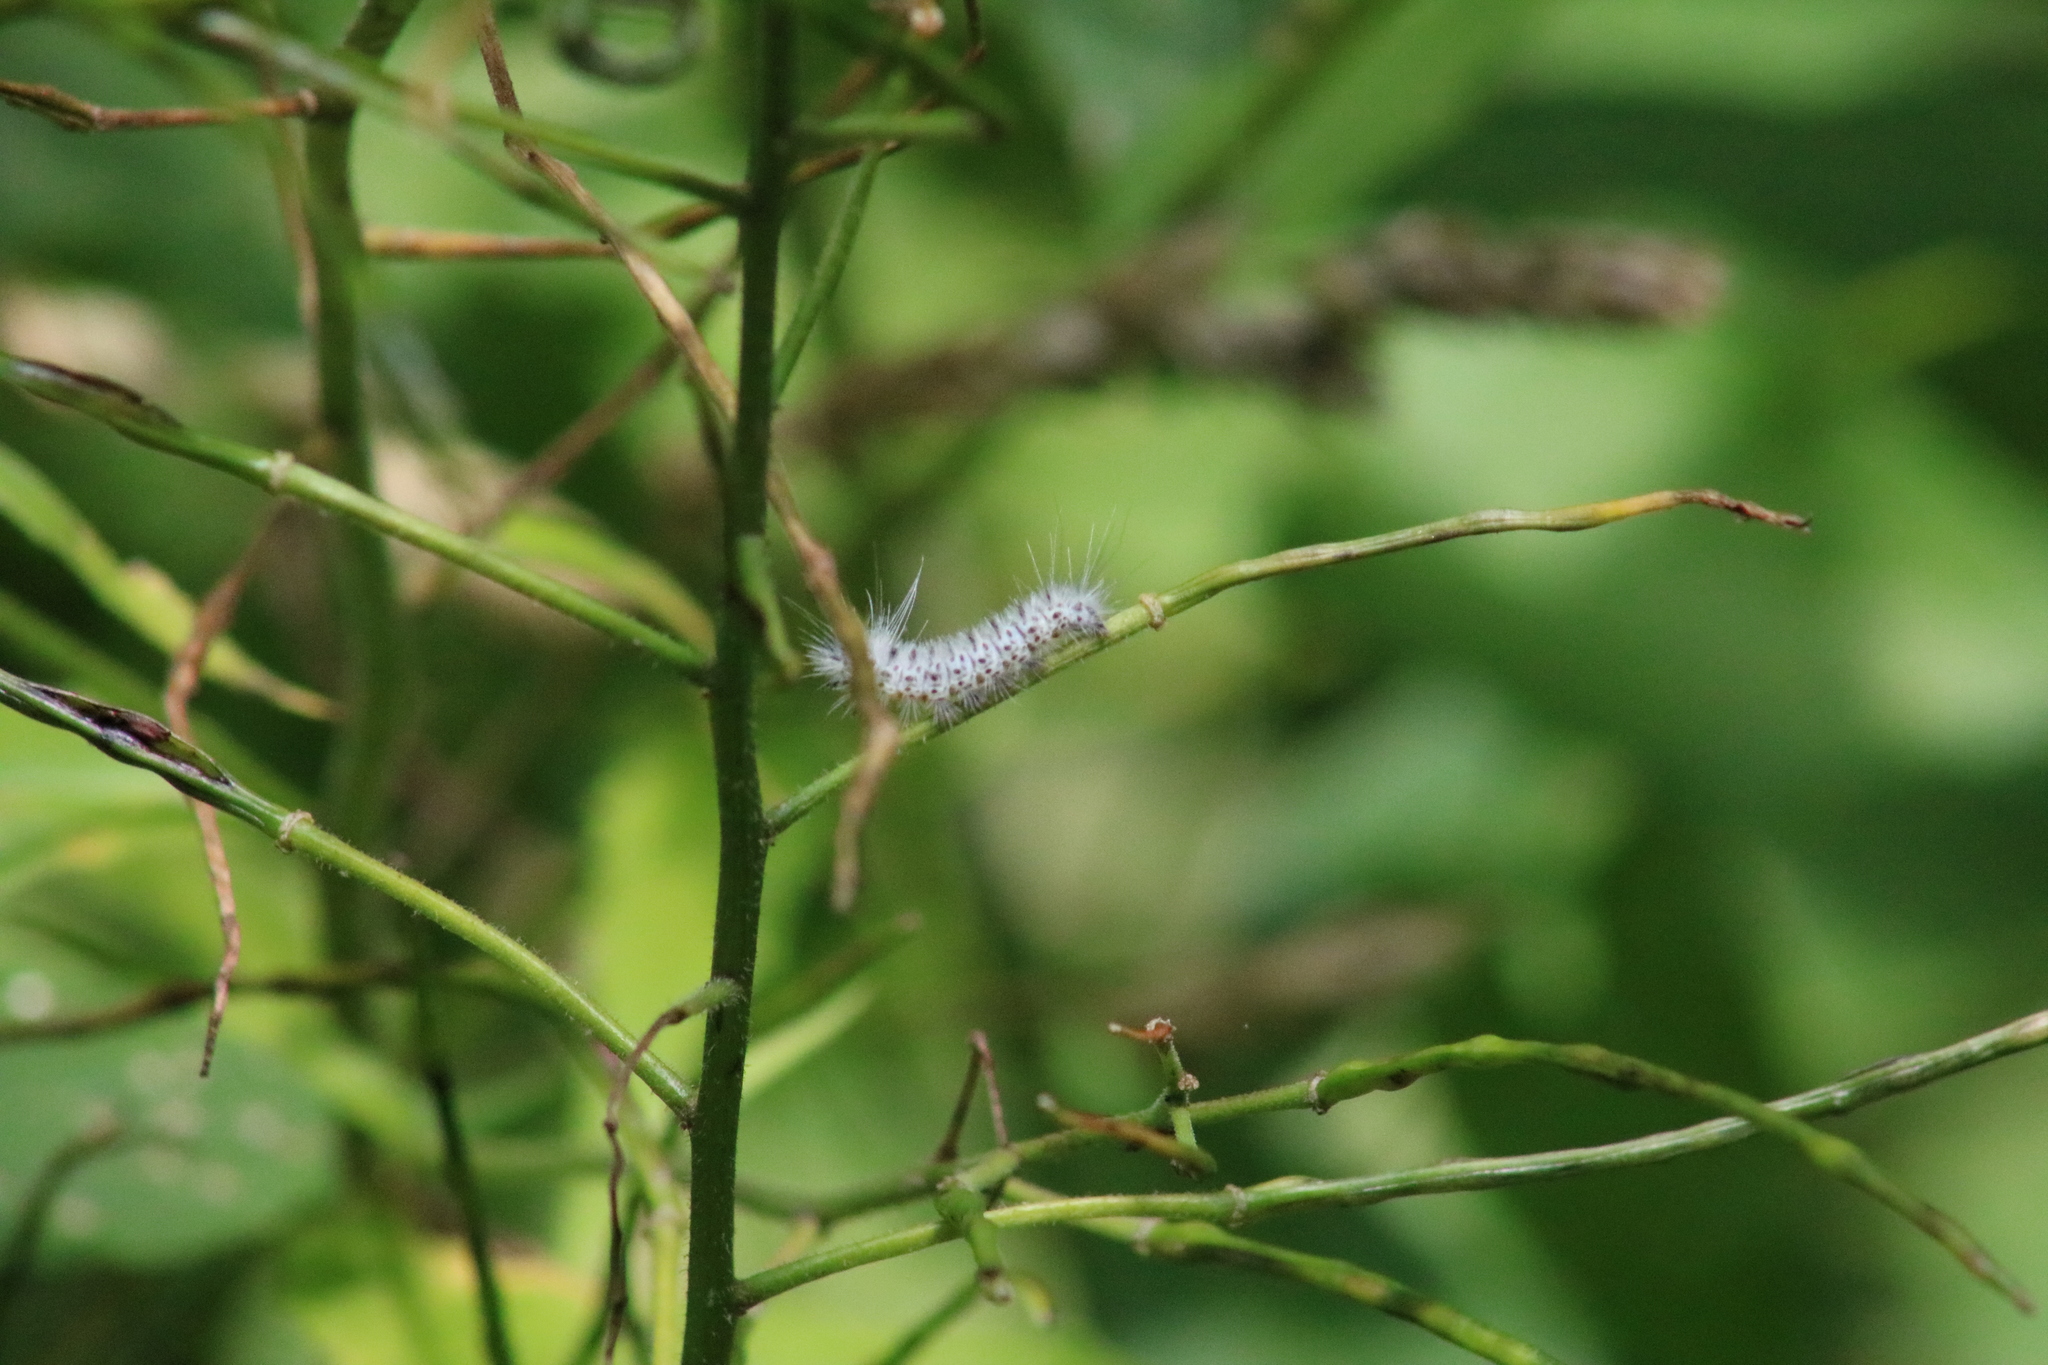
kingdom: Animalia
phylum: Arthropoda
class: Insecta
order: Lepidoptera
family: Erebidae
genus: Lophocampa
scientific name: Lophocampa caryae
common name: Hickory tussock moth
